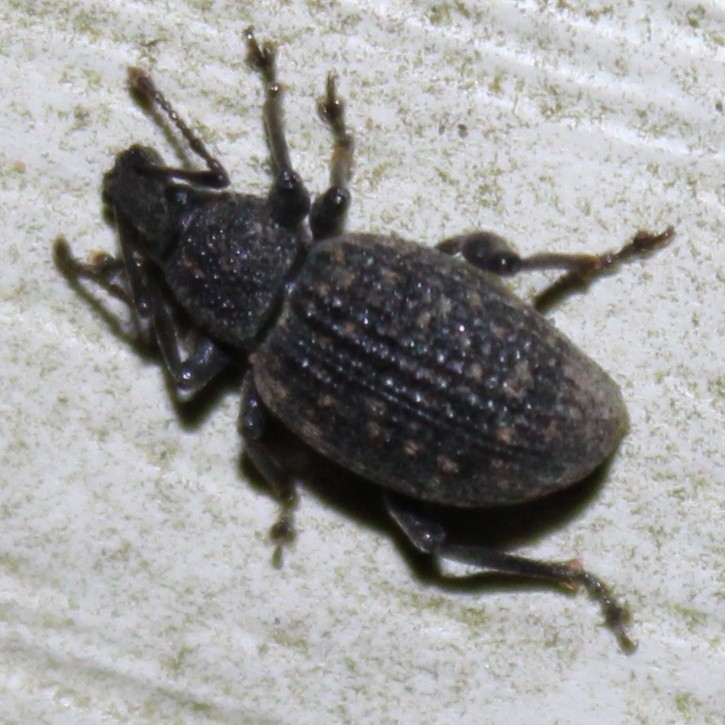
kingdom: Animalia
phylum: Arthropoda
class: Insecta
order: Coleoptera
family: Curculionidae
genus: Otiorhynchus
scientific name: Otiorhynchus sulcatus
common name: Black vine weevil
